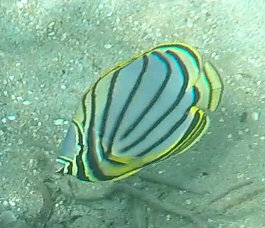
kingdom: Animalia
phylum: Chordata
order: Perciformes
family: Chaetodontidae
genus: Chaetodon
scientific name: Chaetodon meyeri
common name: Meyer's butterflyfish
